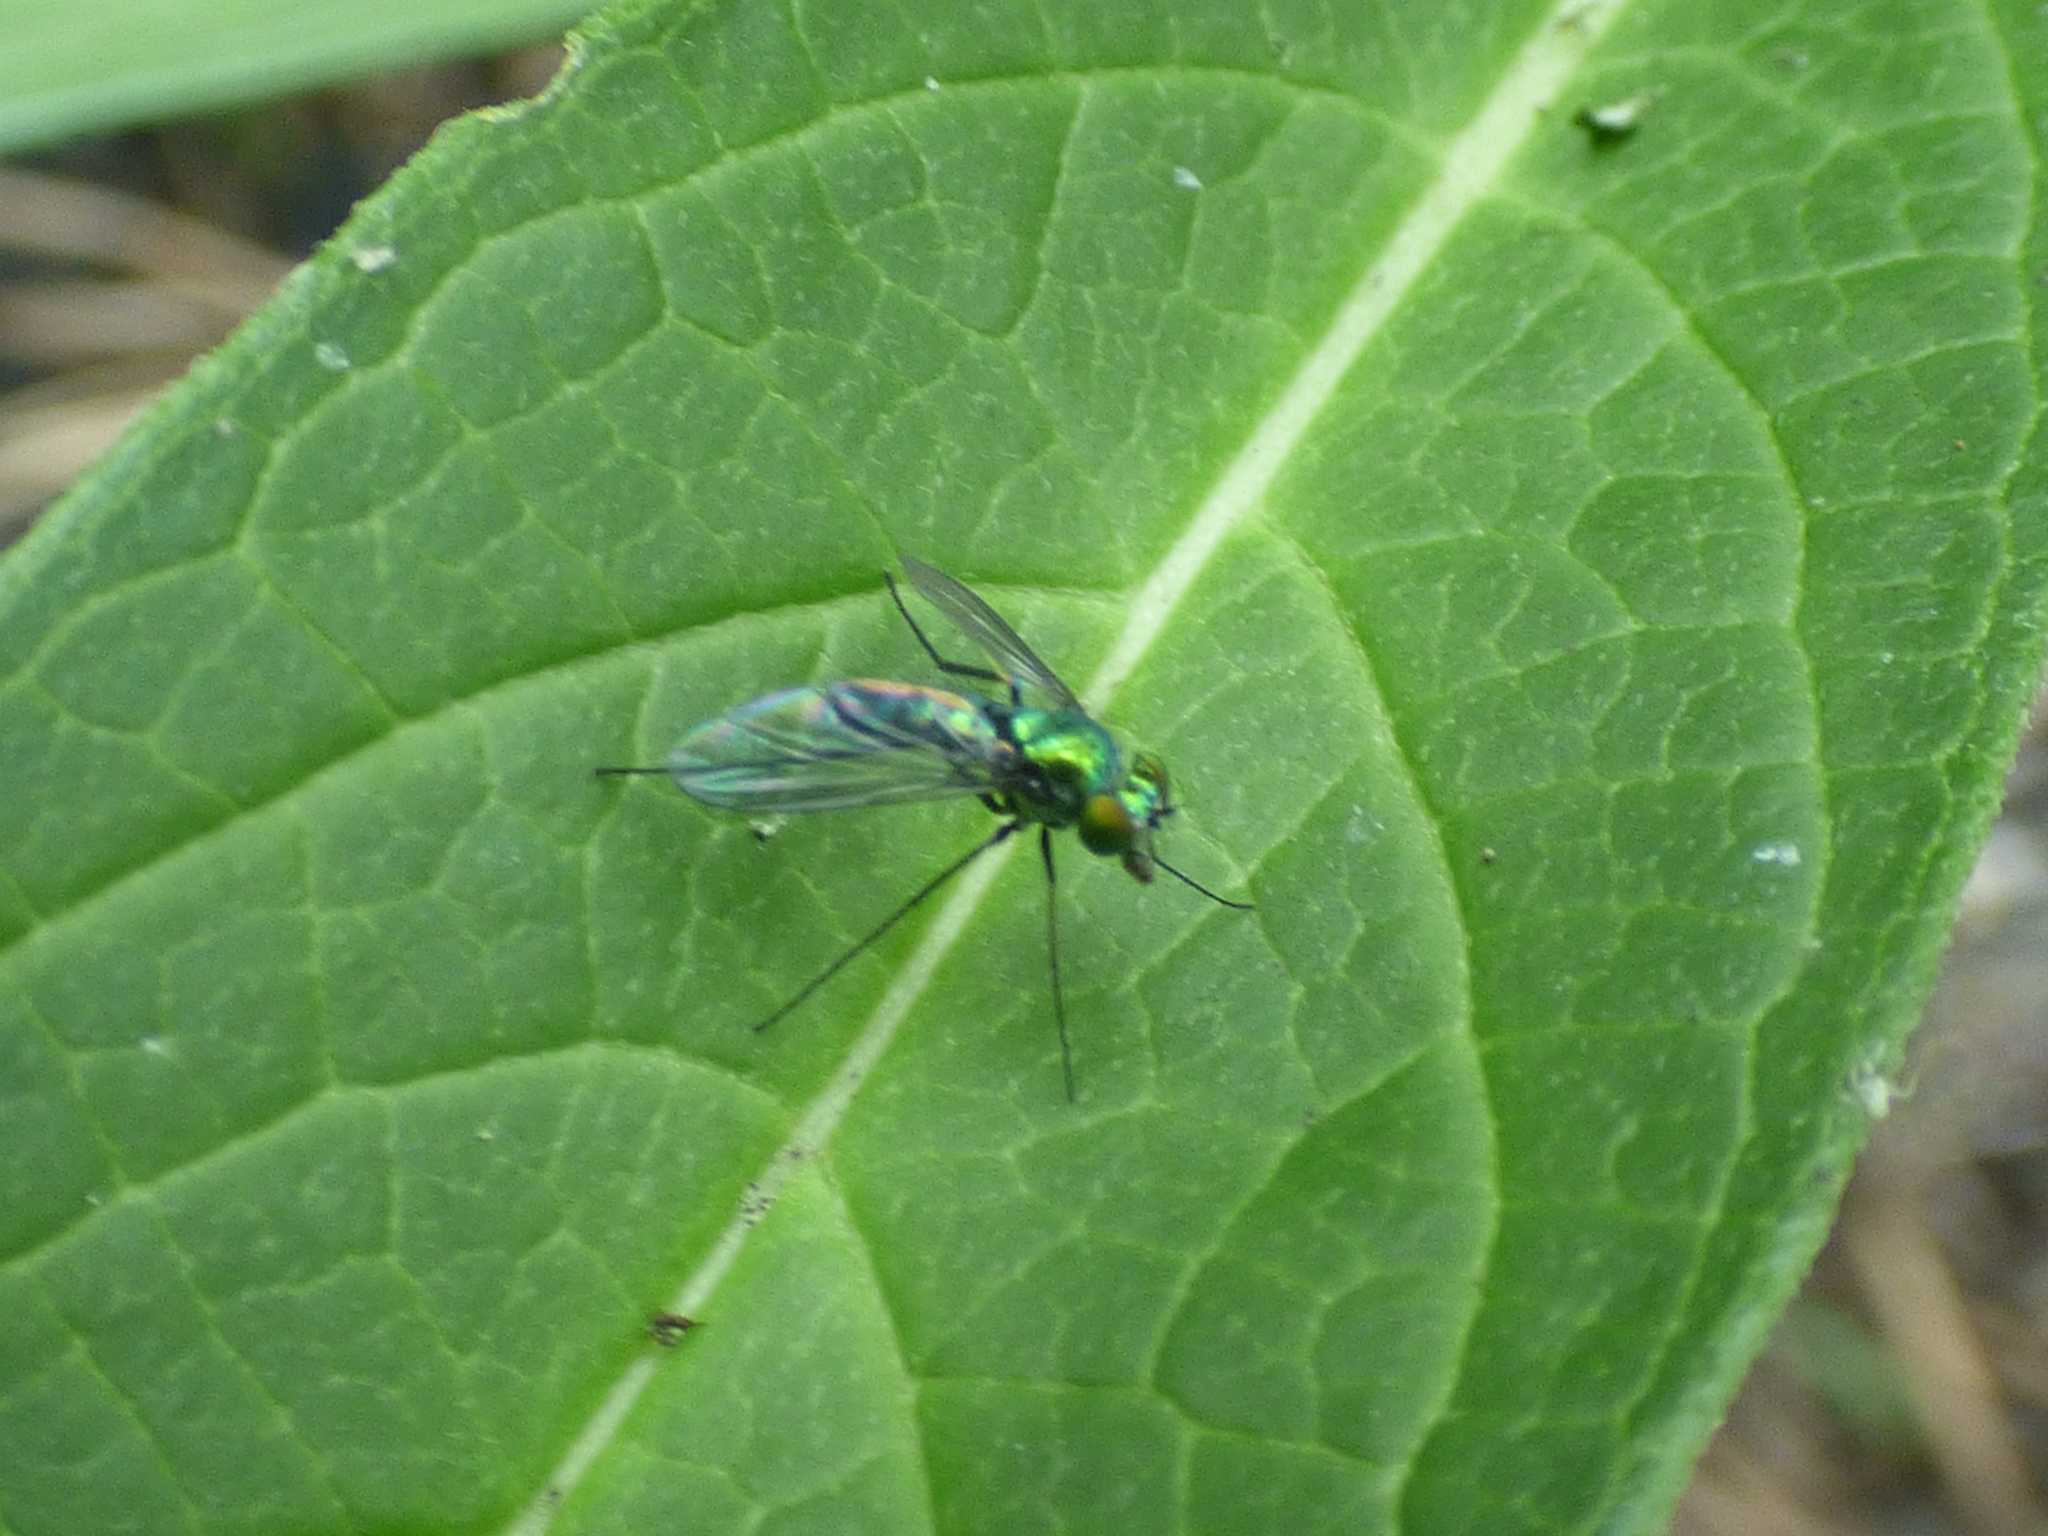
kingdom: Animalia
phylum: Arthropoda
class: Insecta
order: Diptera
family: Dolichopodidae
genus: Condylostylus
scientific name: Condylostylus longicornis
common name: Long-legged fly
